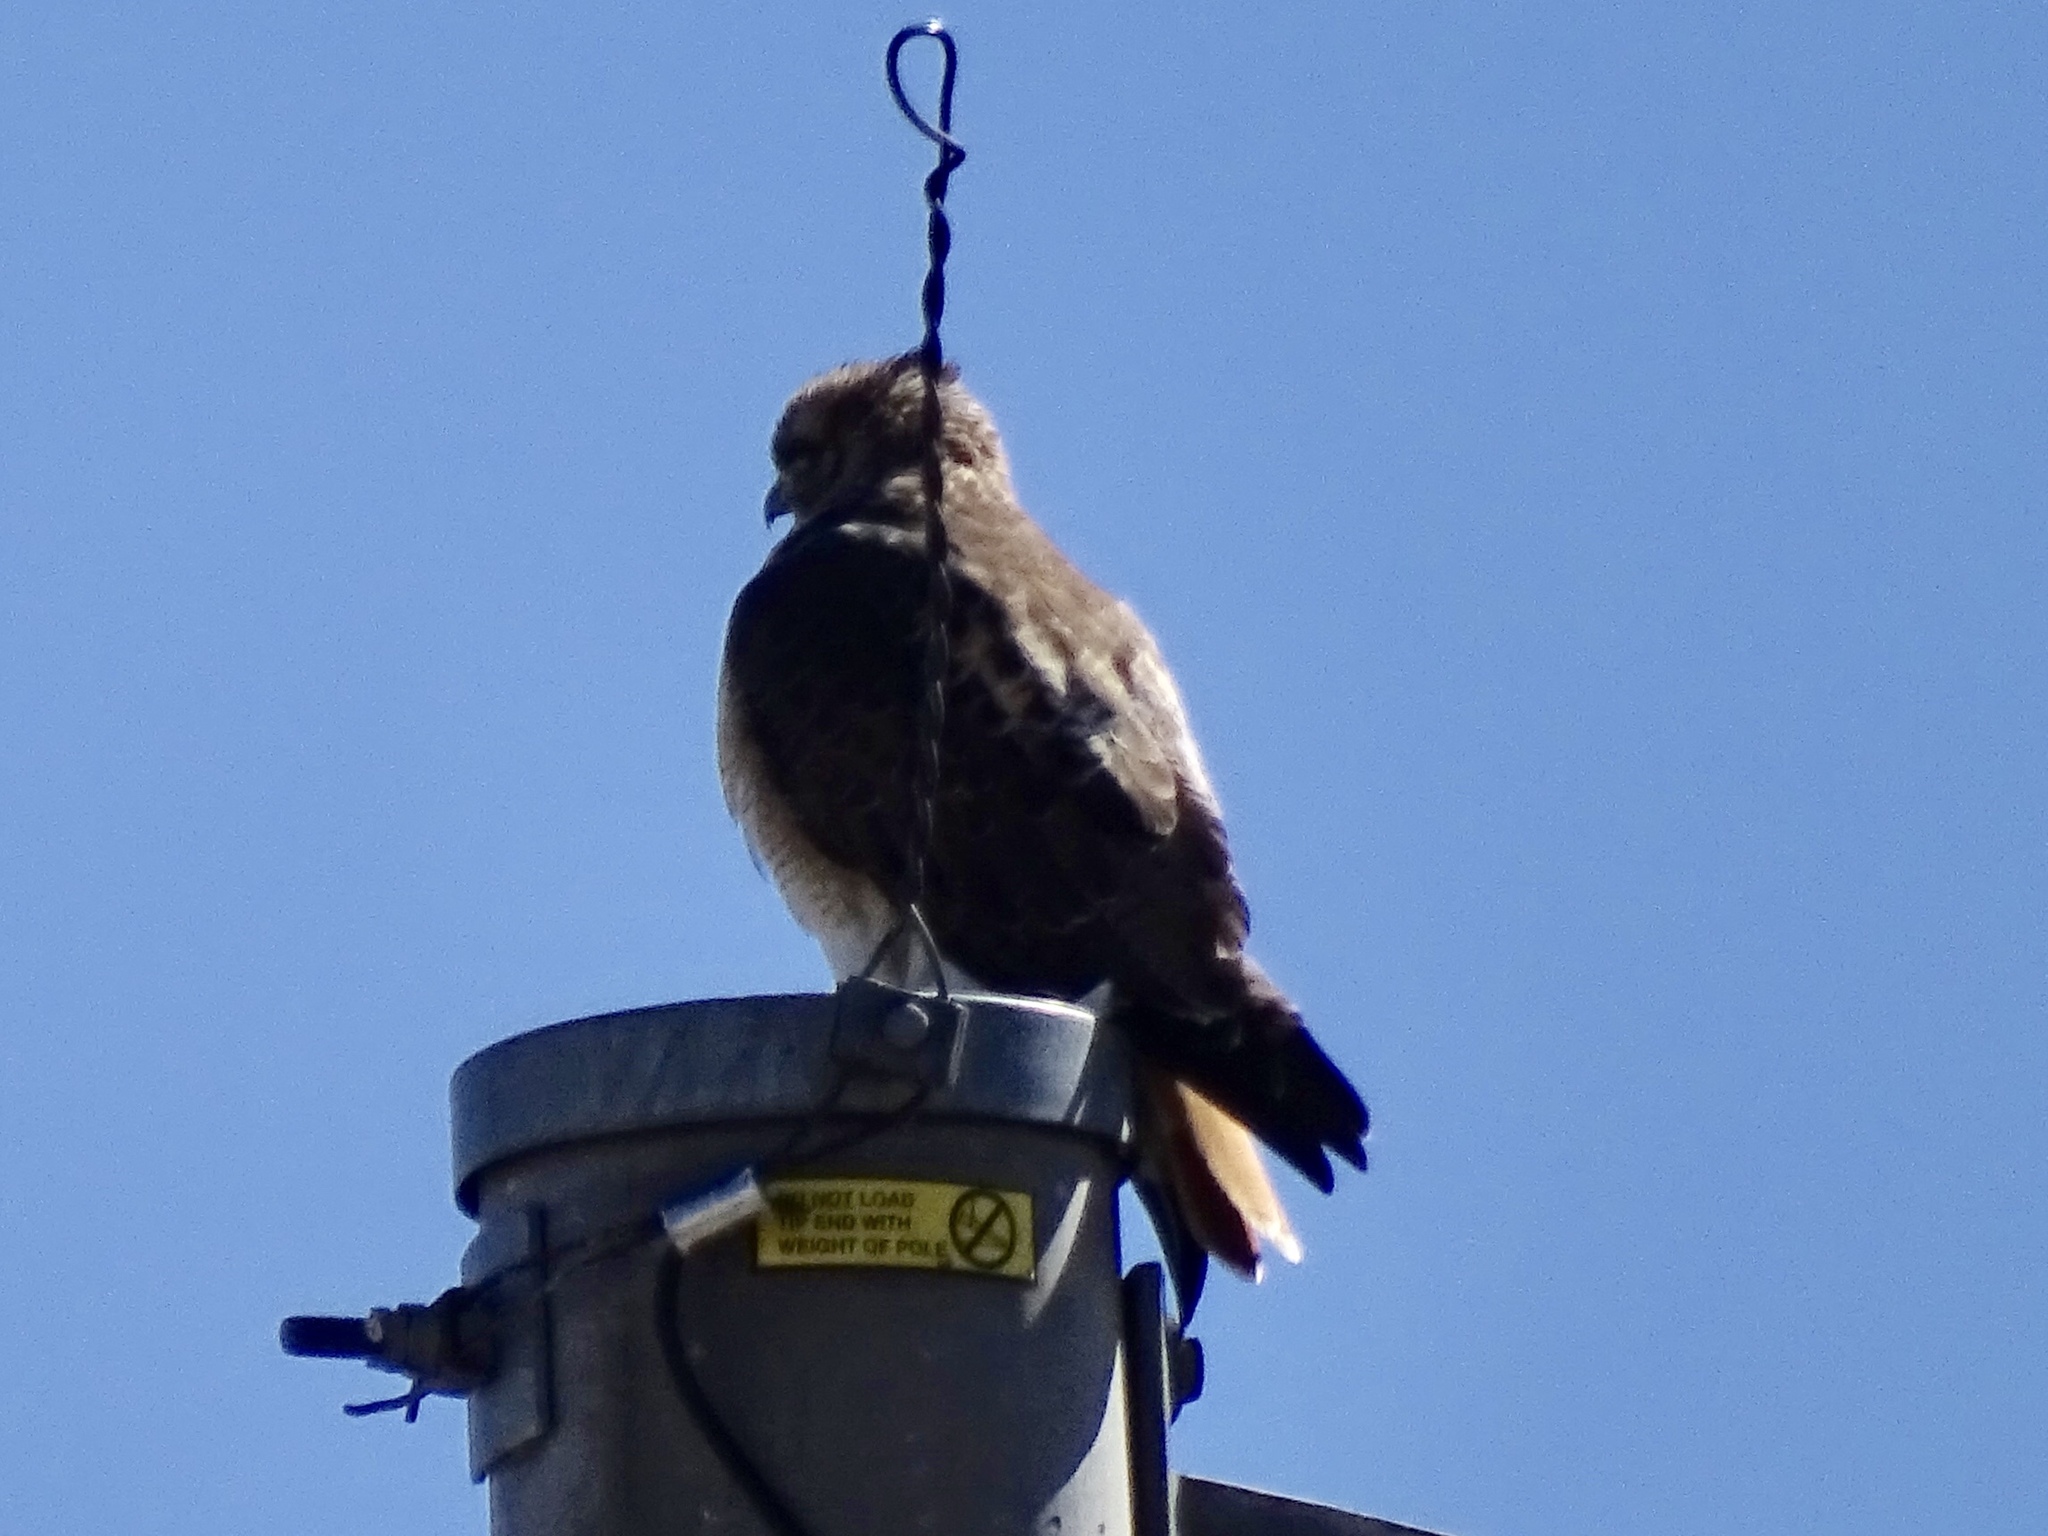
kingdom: Animalia
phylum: Chordata
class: Aves
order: Accipitriformes
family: Accipitridae
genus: Buteo
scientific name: Buteo jamaicensis
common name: Red-tailed hawk
